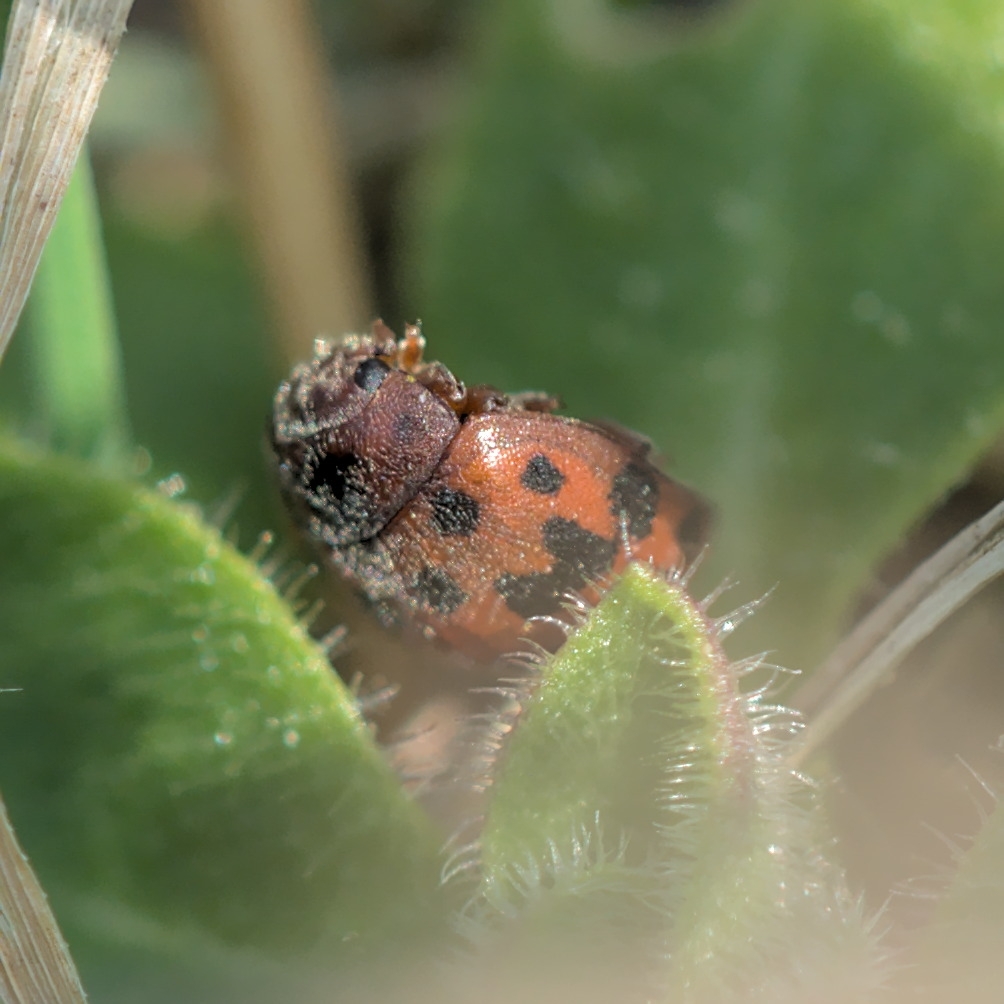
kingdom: Animalia
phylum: Arthropoda
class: Insecta
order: Coleoptera
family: Coccinellidae
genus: Subcoccinella
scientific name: Subcoccinella vigintiquatuorpunctata
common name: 24-spot ladybird
